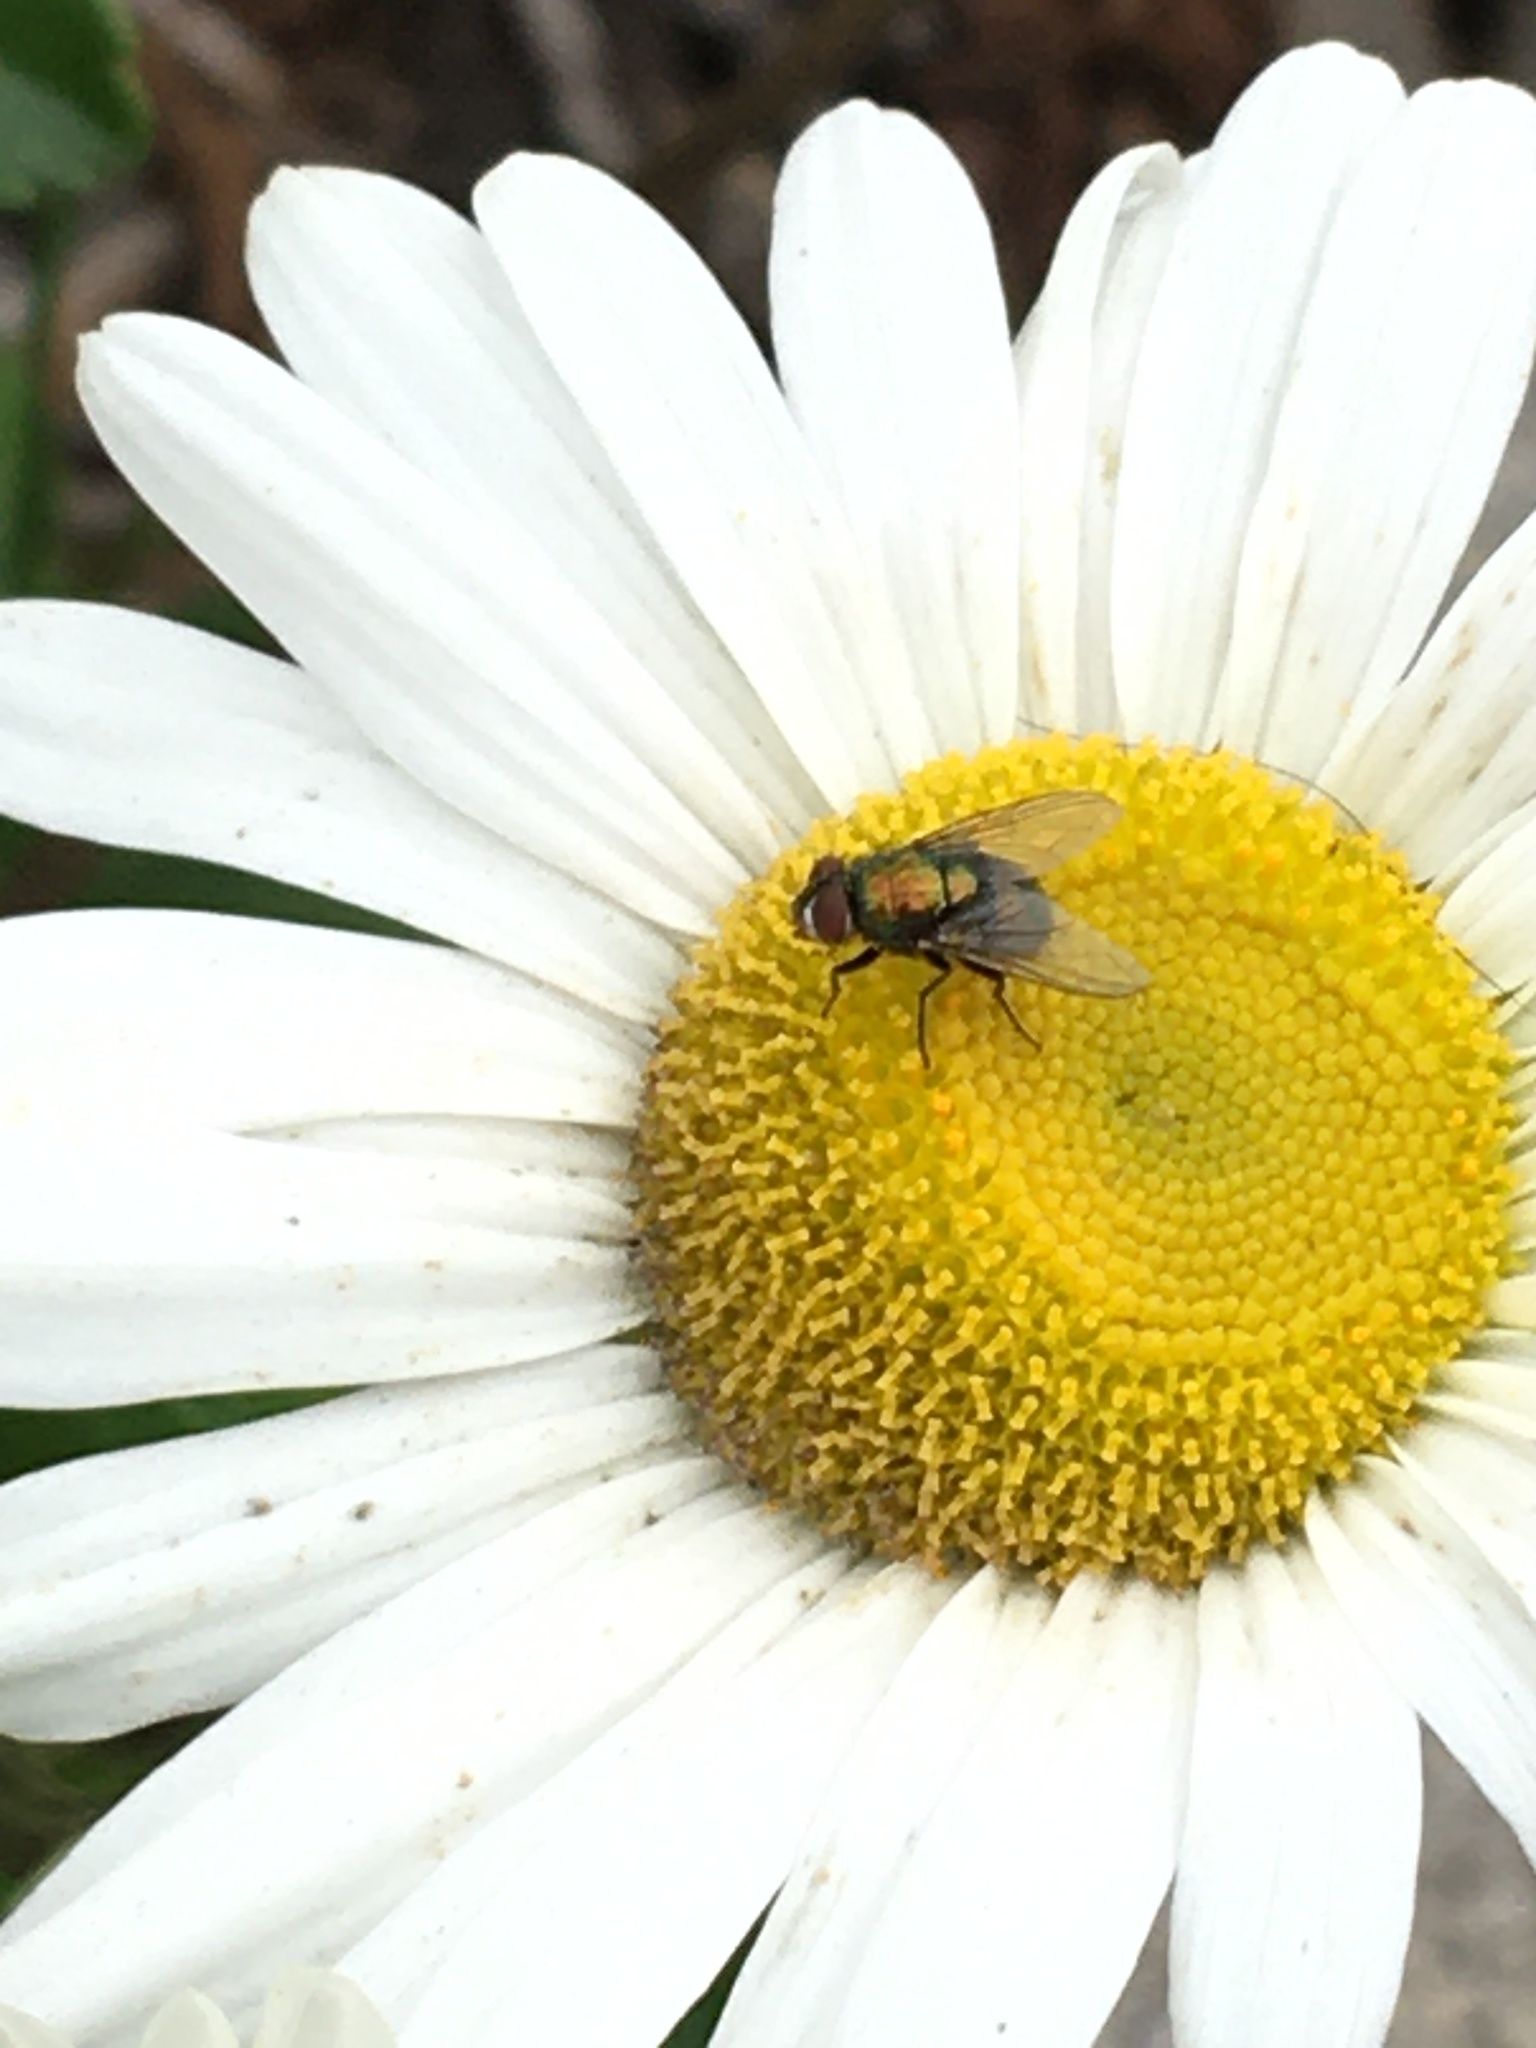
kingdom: Animalia
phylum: Arthropoda
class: Insecta
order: Diptera
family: Calliphoridae
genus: Lucilia
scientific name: Lucilia
